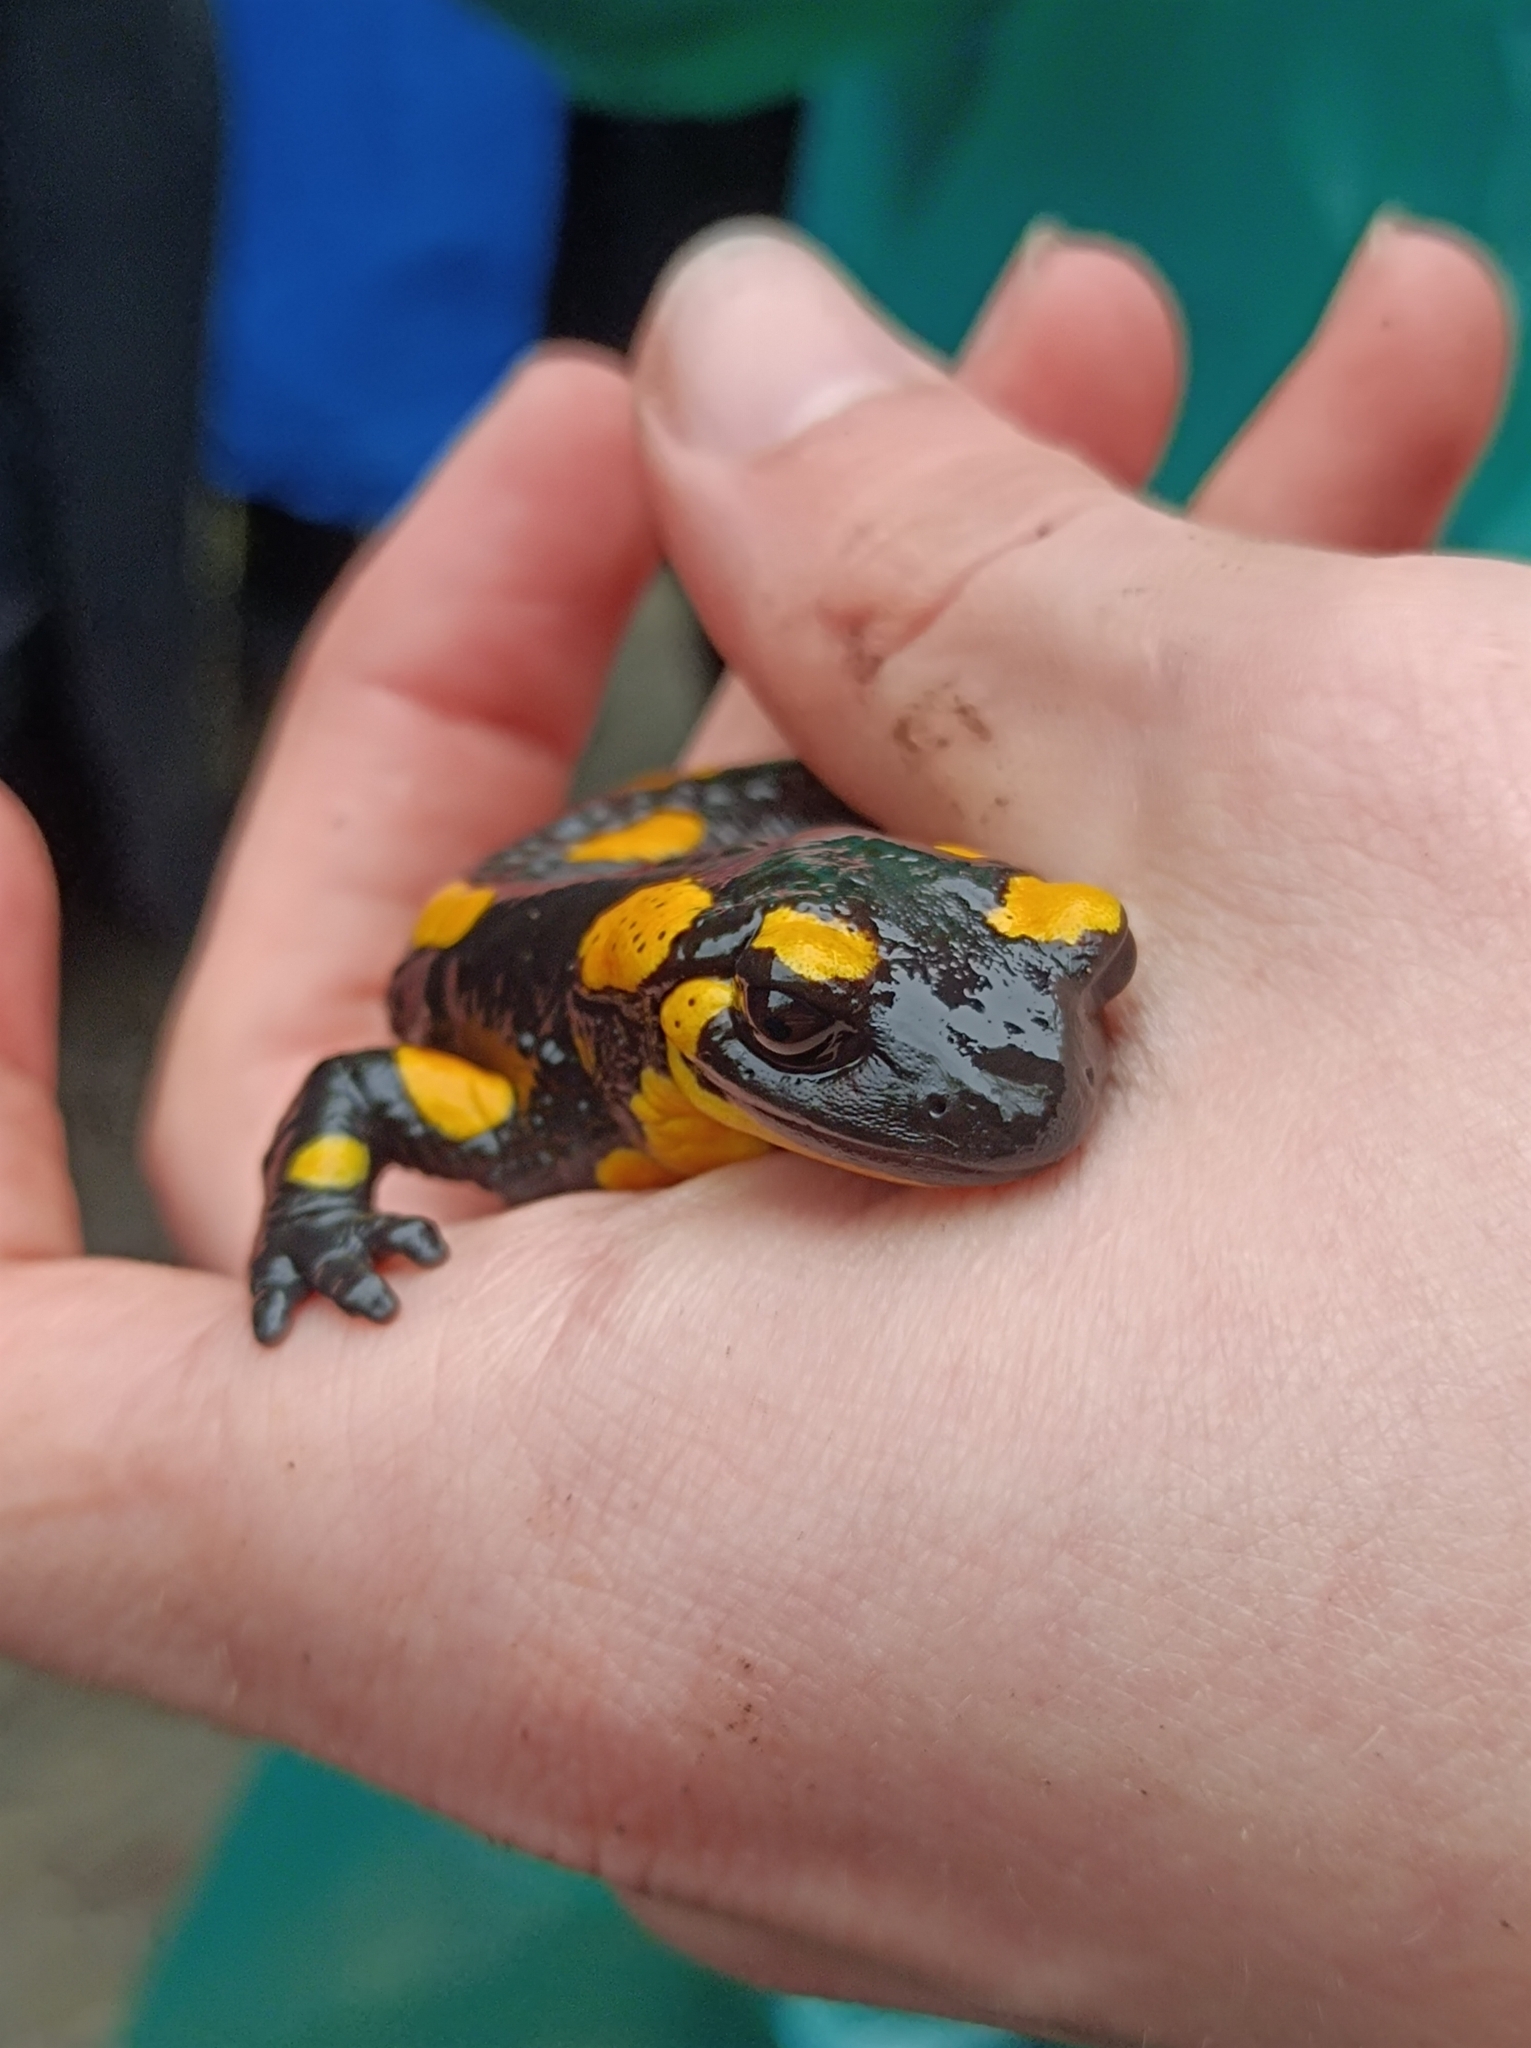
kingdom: Animalia
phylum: Chordata
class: Amphibia
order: Caudata
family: Salamandridae
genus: Salamandra
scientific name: Salamandra salamandra
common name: Fire salamander
